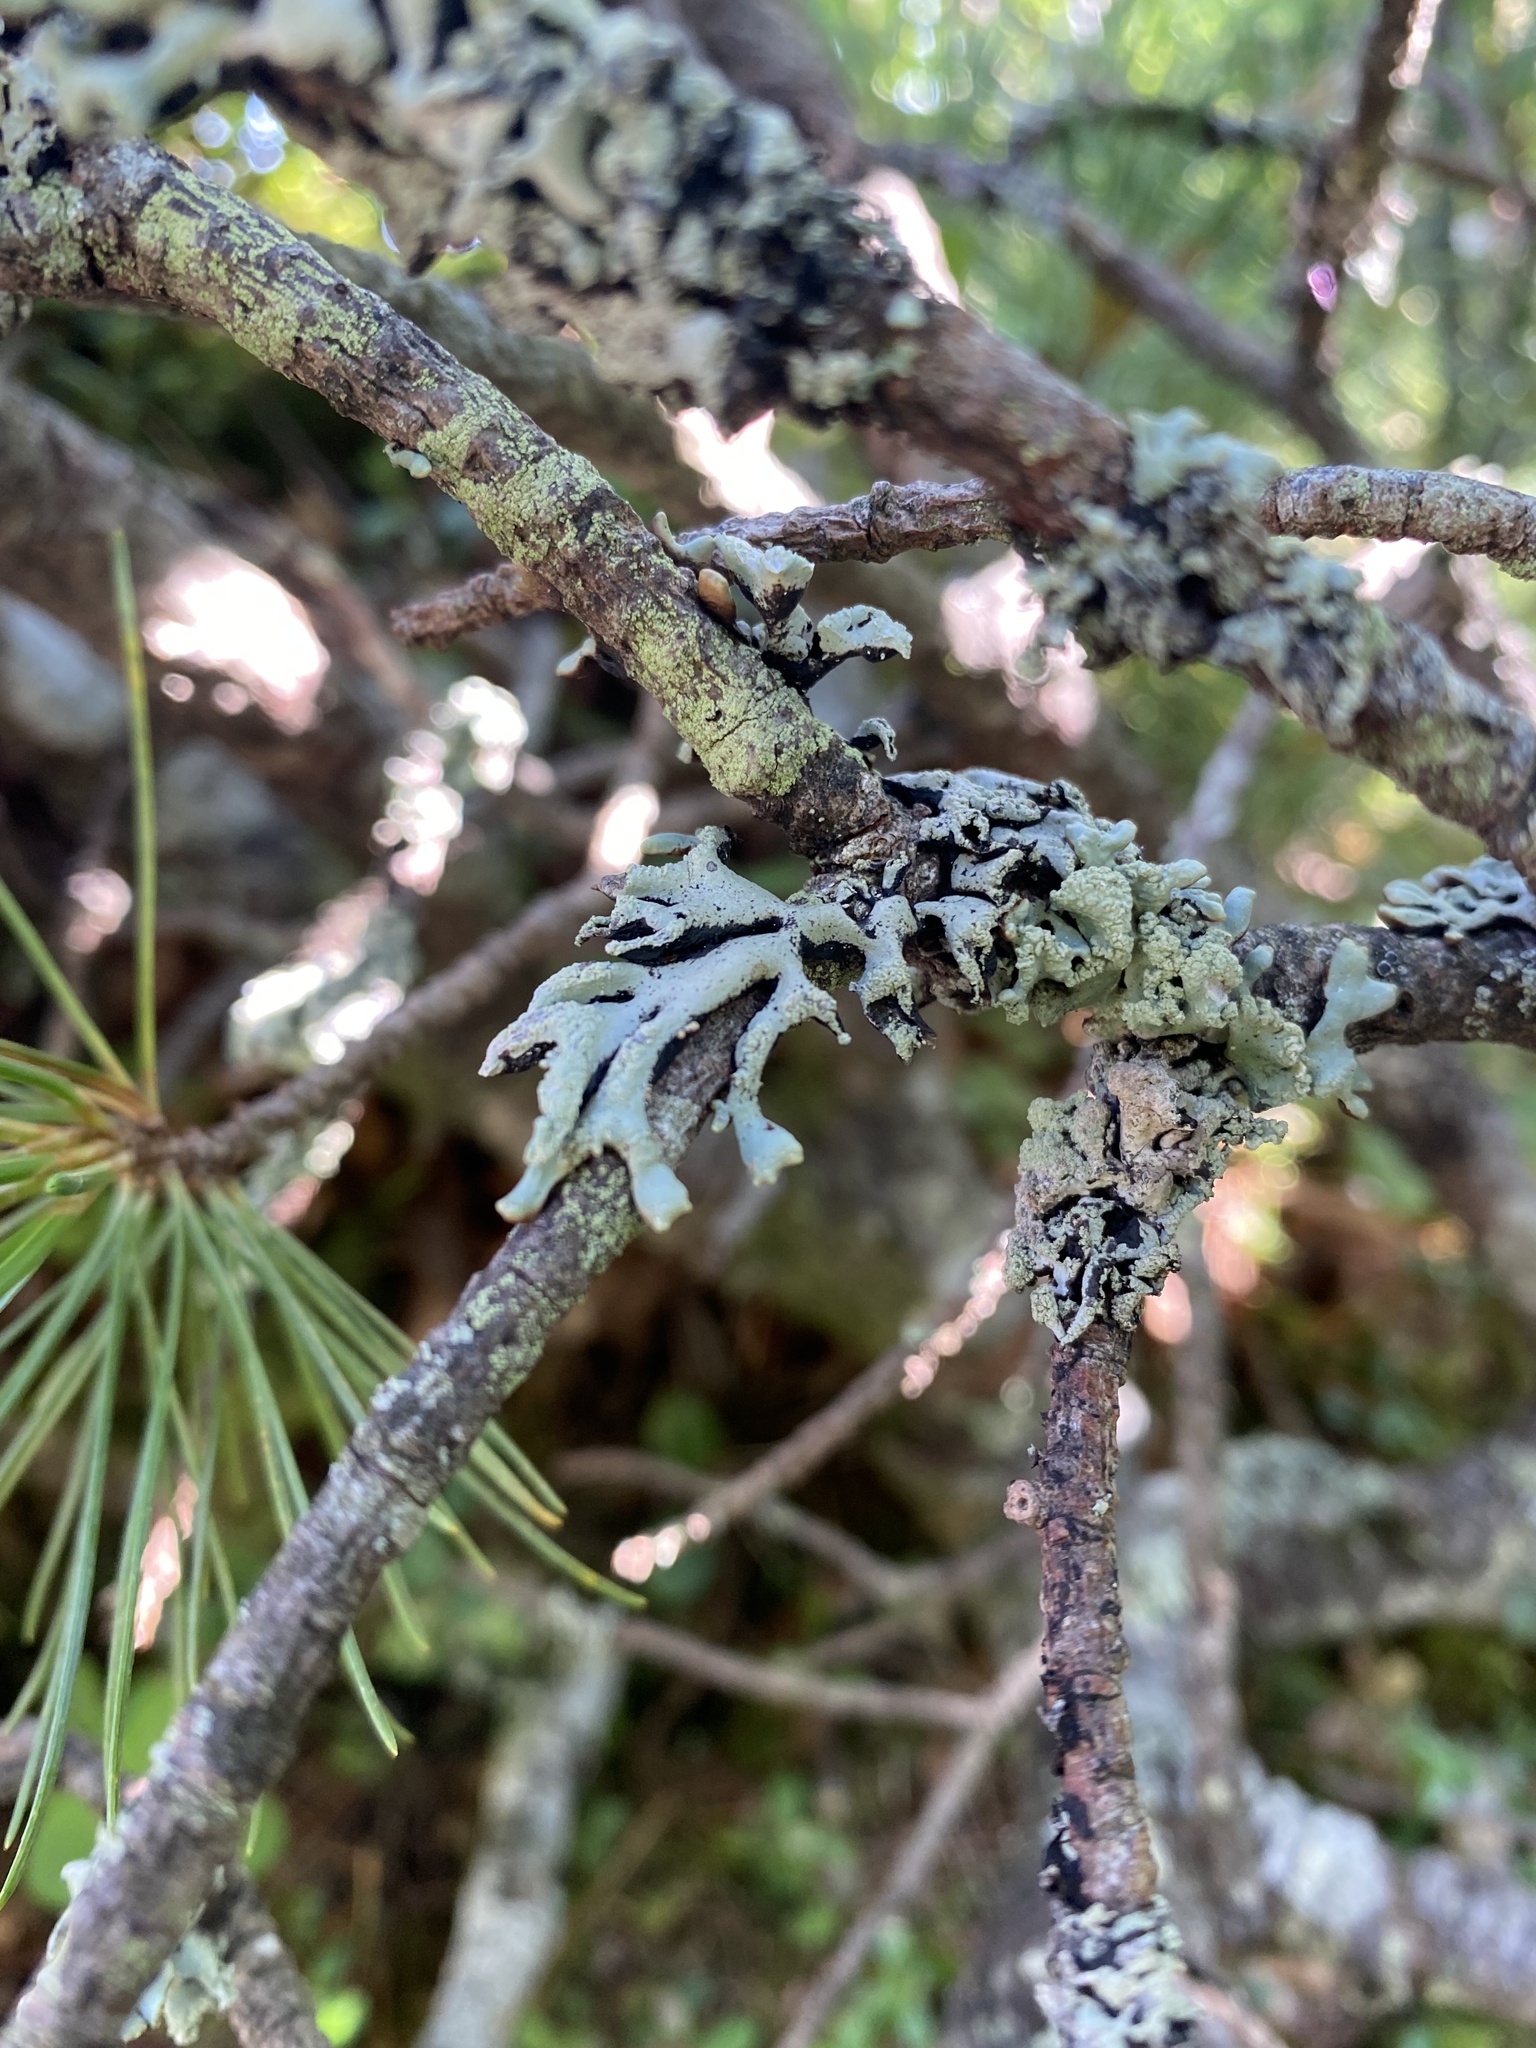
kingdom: Fungi
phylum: Ascomycota
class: Lecanoromycetes
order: Lecanorales
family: Parmeliaceae
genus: Hypogymnia
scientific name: Hypogymnia
